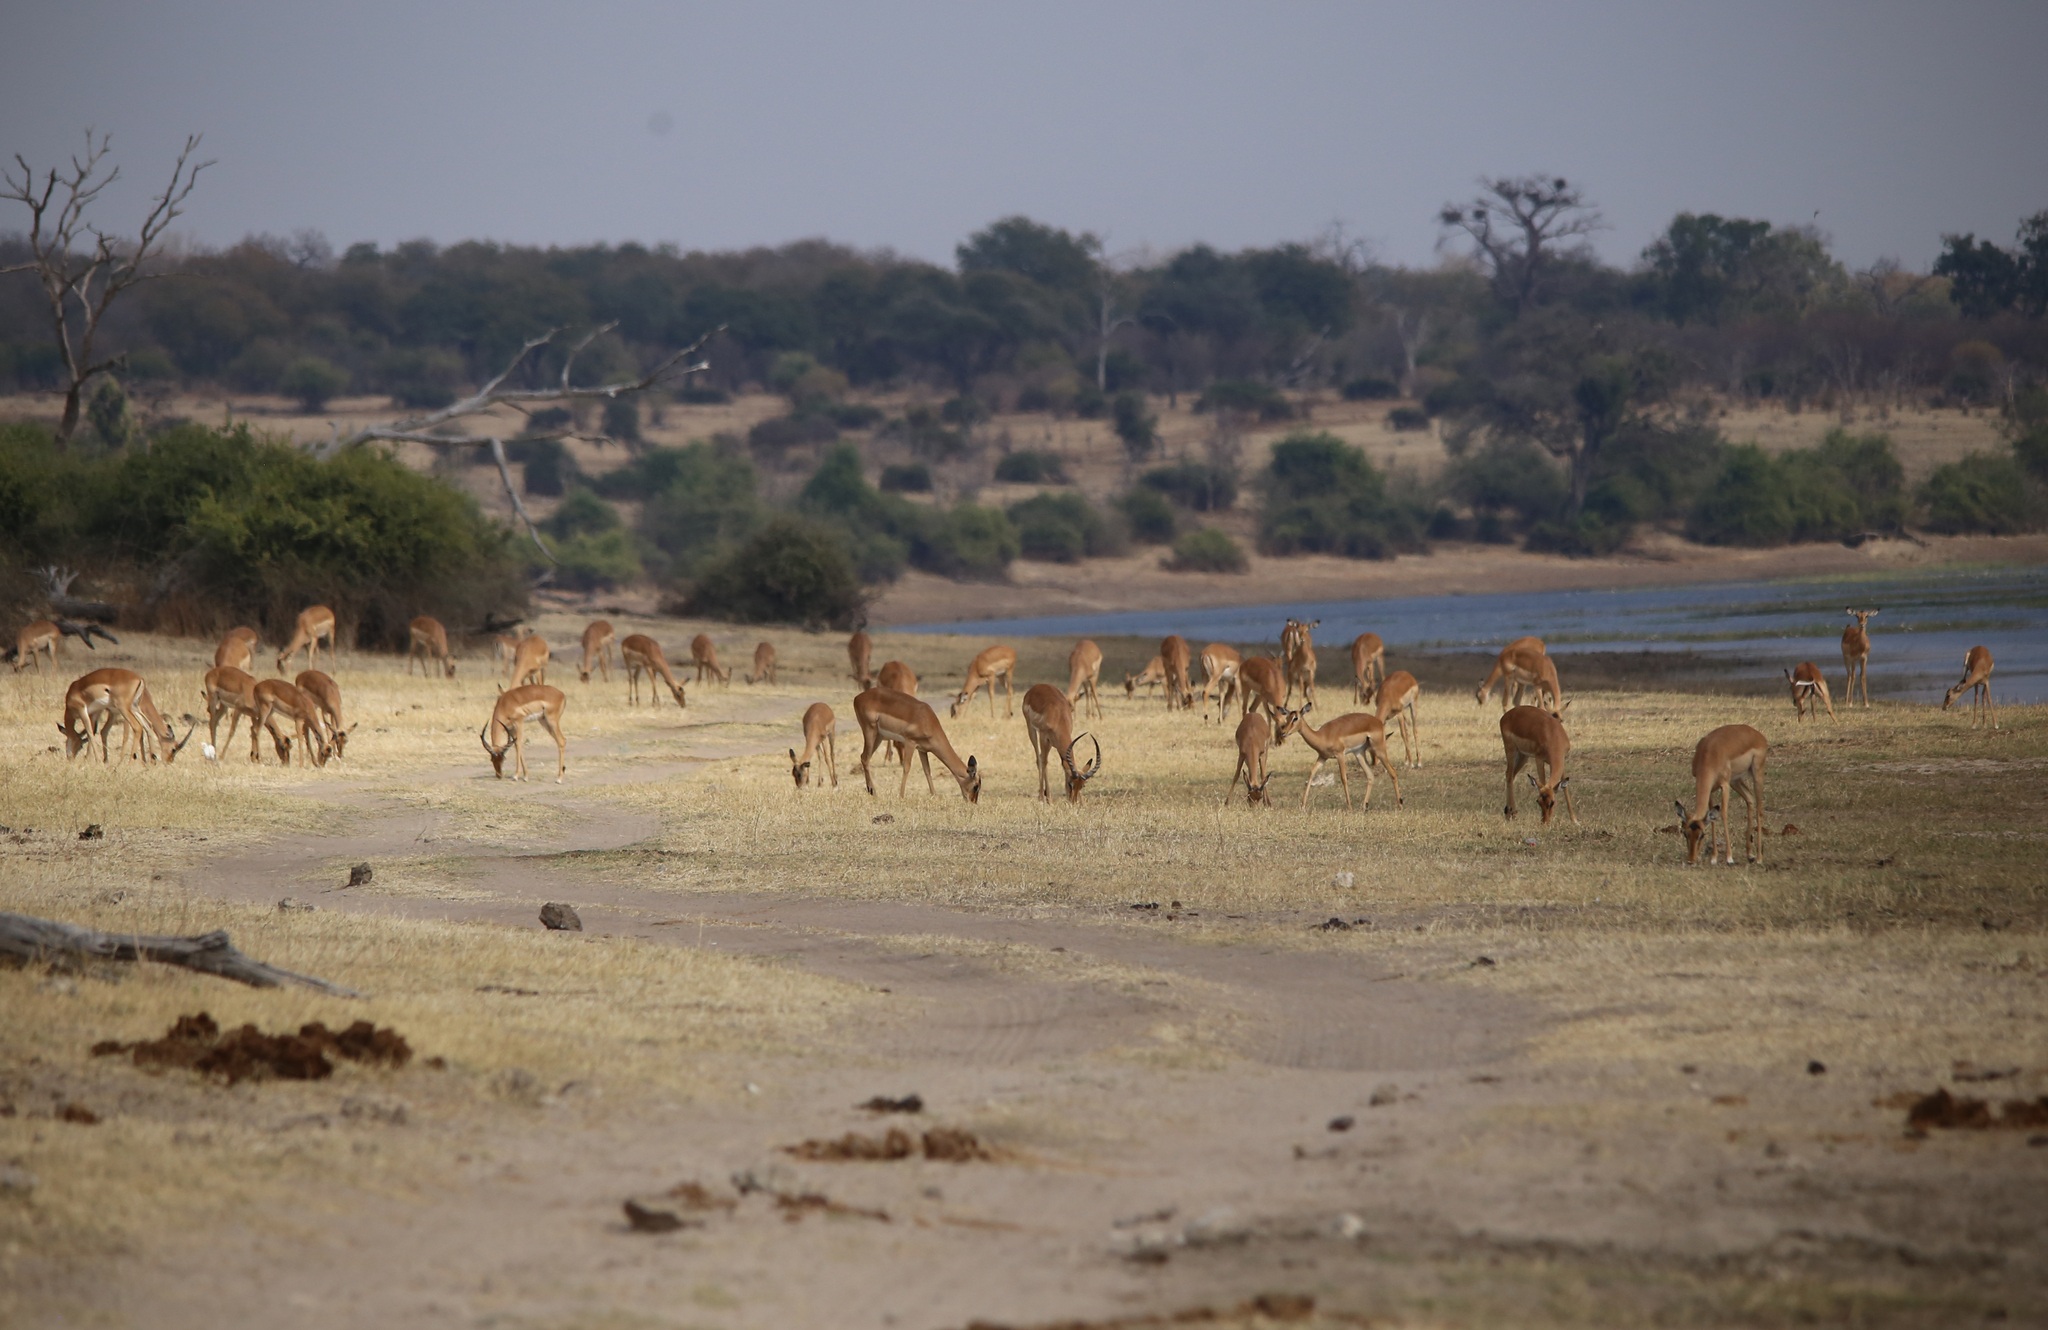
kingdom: Animalia
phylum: Chordata
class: Mammalia
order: Artiodactyla
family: Bovidae
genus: Aepyceros
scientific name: Aepyceros melampus
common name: Impala
